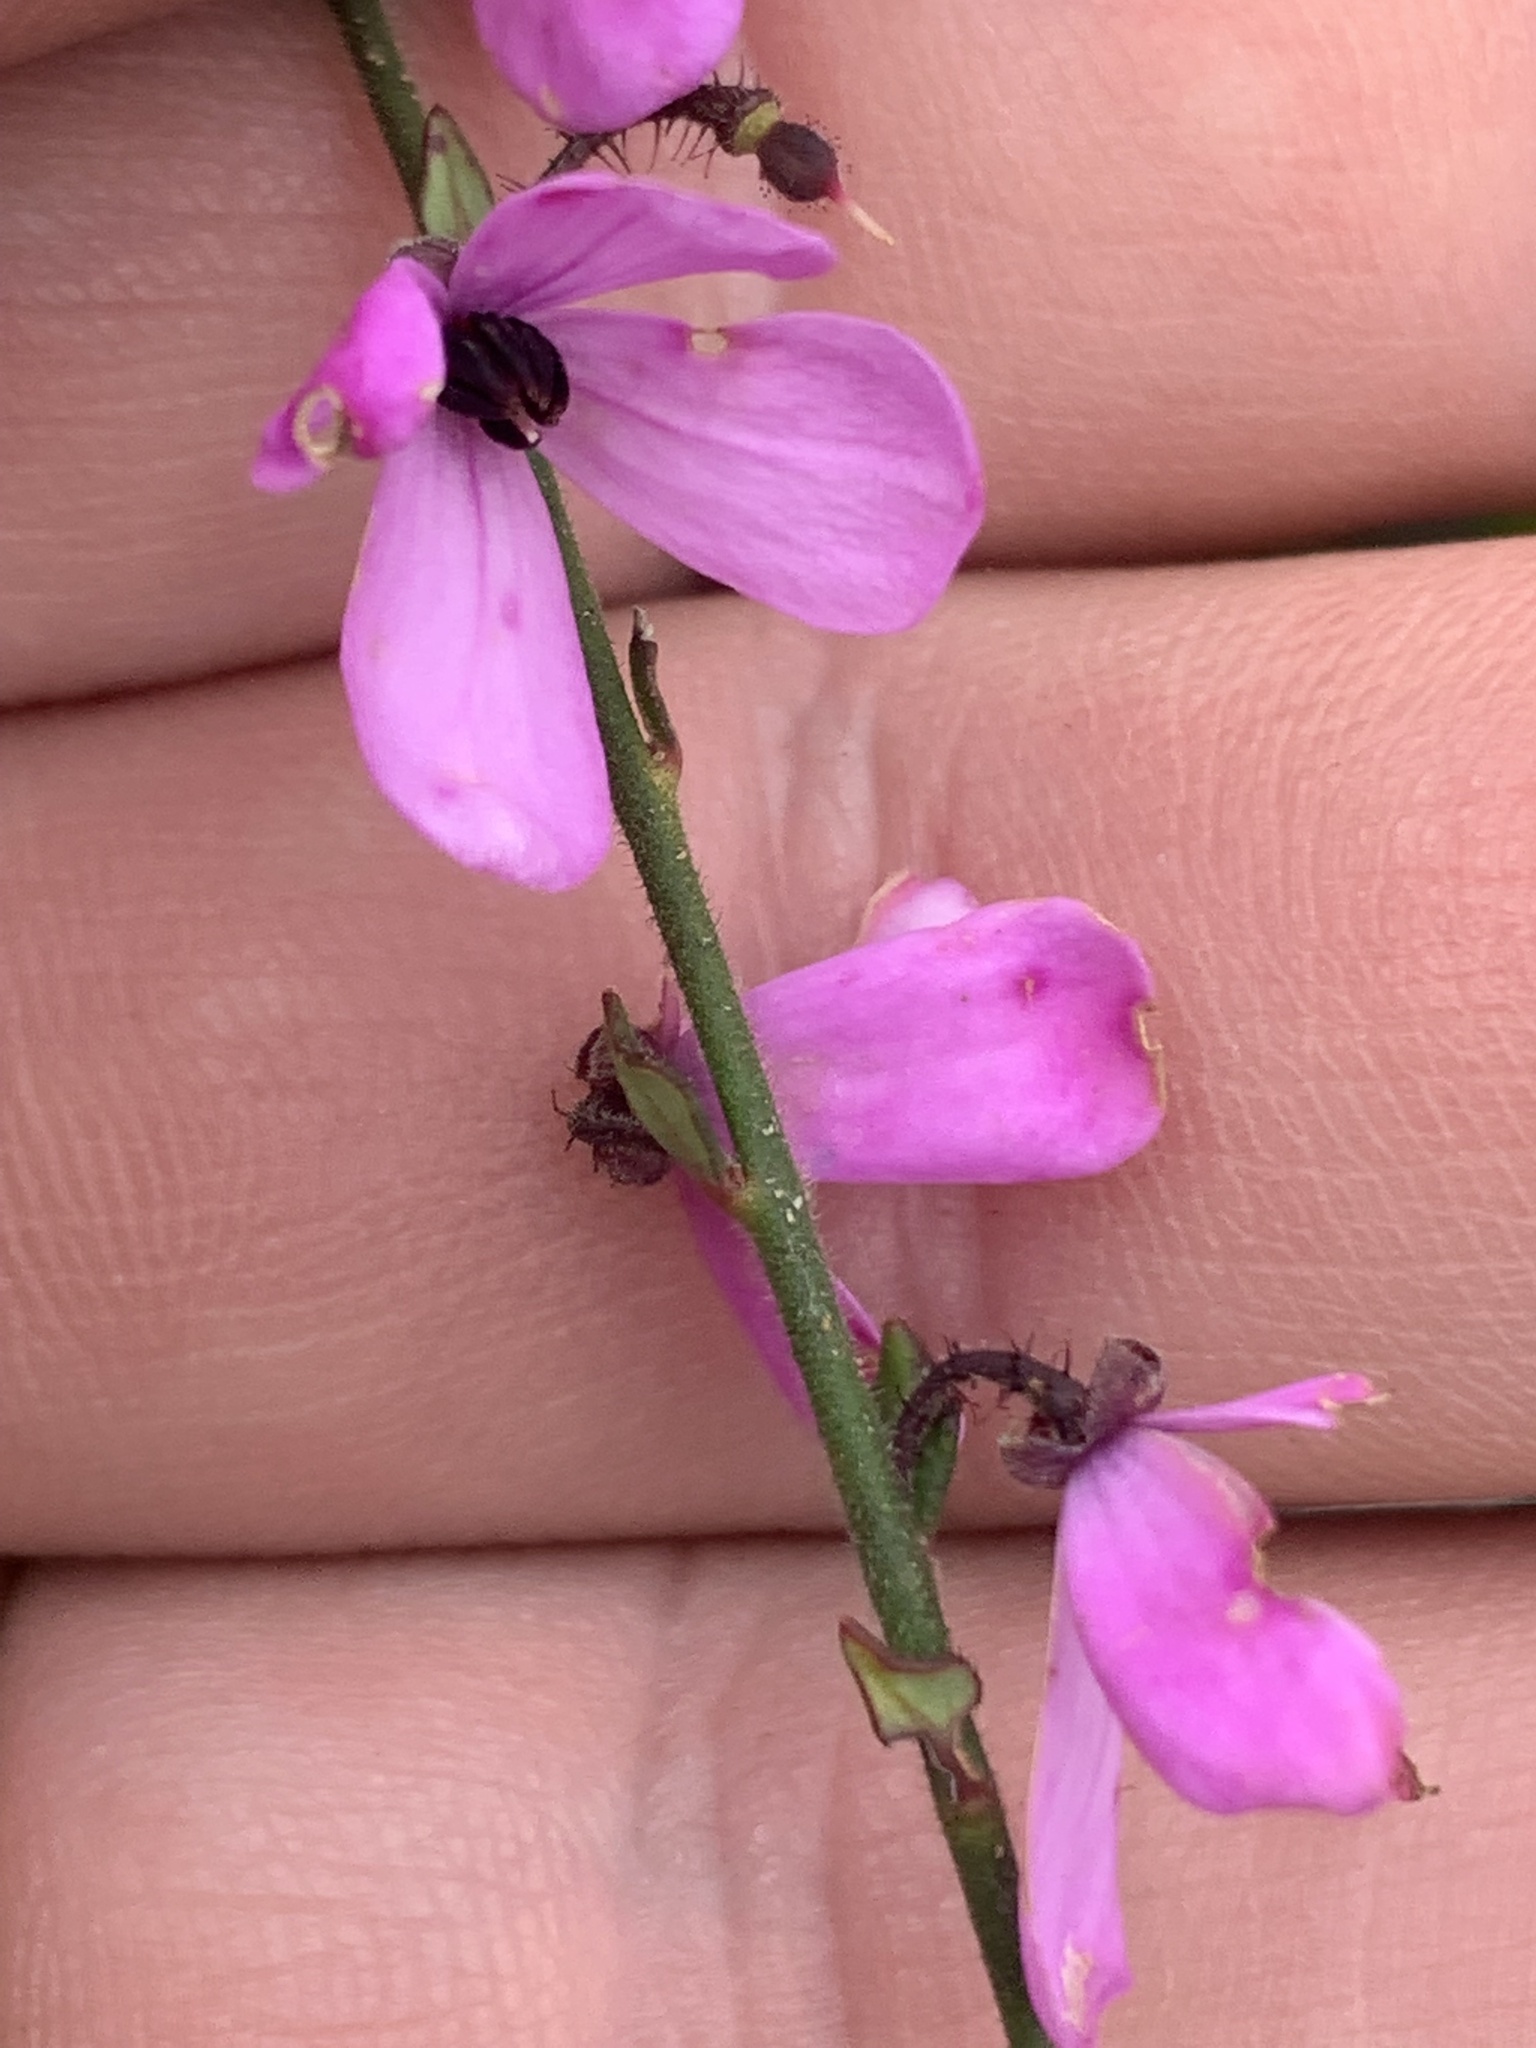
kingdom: Plantae
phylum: Tracheophyta
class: Magnoliopsida
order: Oxalidales
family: Elaeocarpaceae
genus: Tetratheca
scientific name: Tetratheca ciliata
